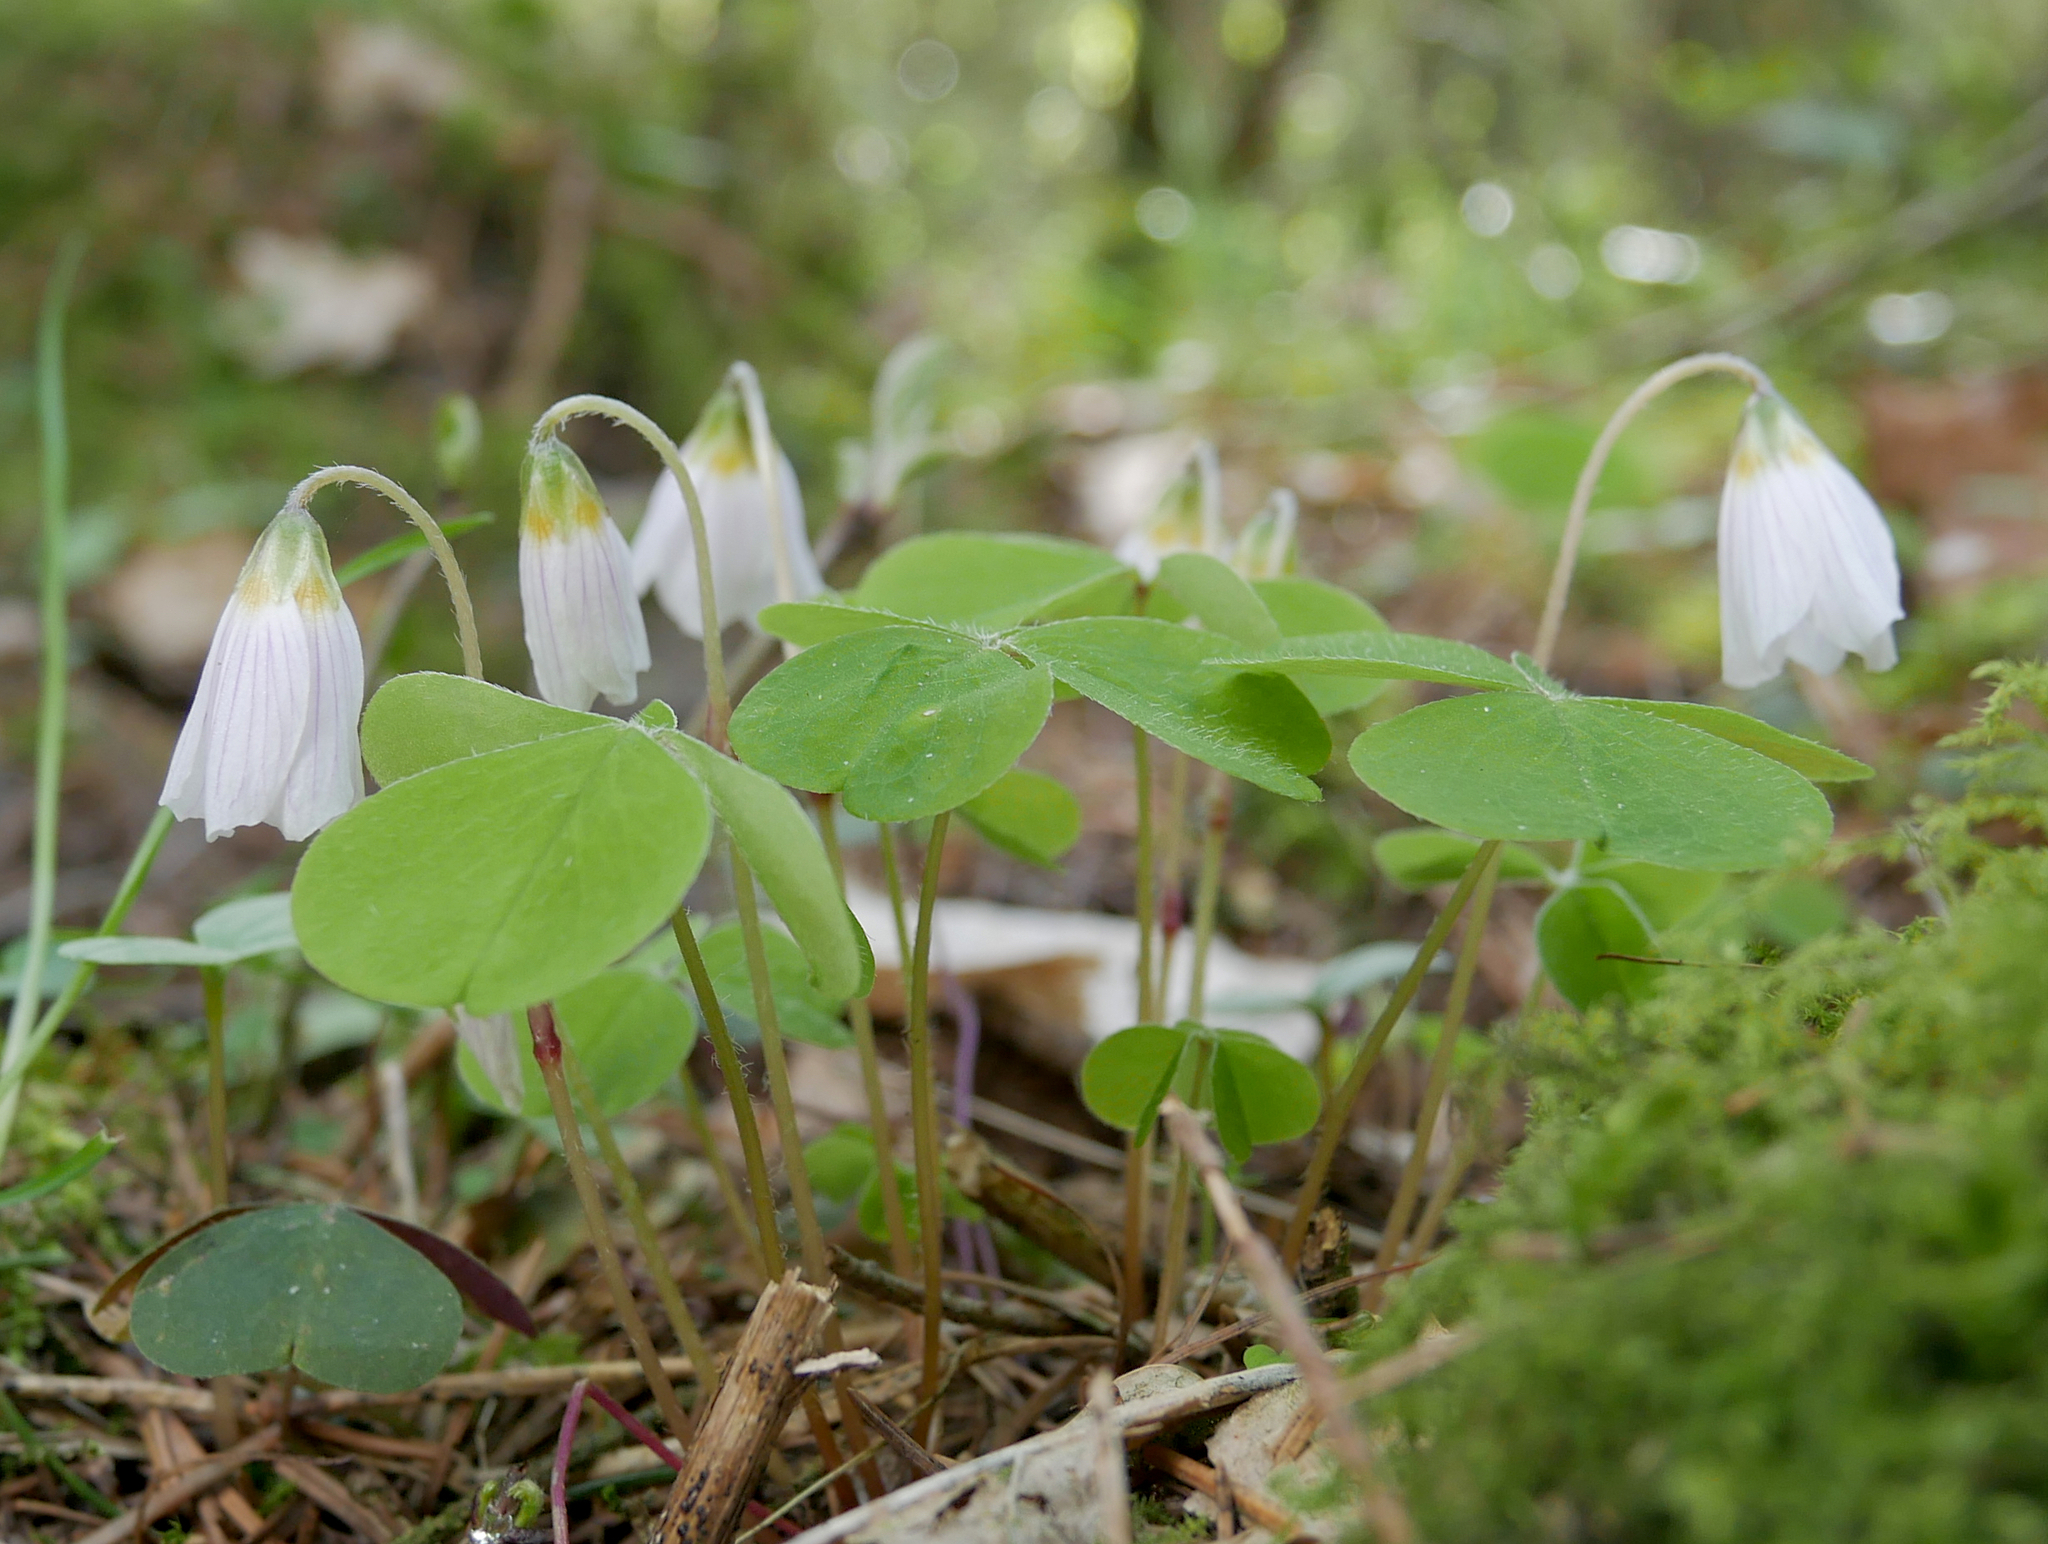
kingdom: Plantae
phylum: Tracheophyta
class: Magnoliopsida
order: Oxalidales
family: Oxalidaceae
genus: Oxalis
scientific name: Oxalis acetosella
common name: Wood-sorrel
